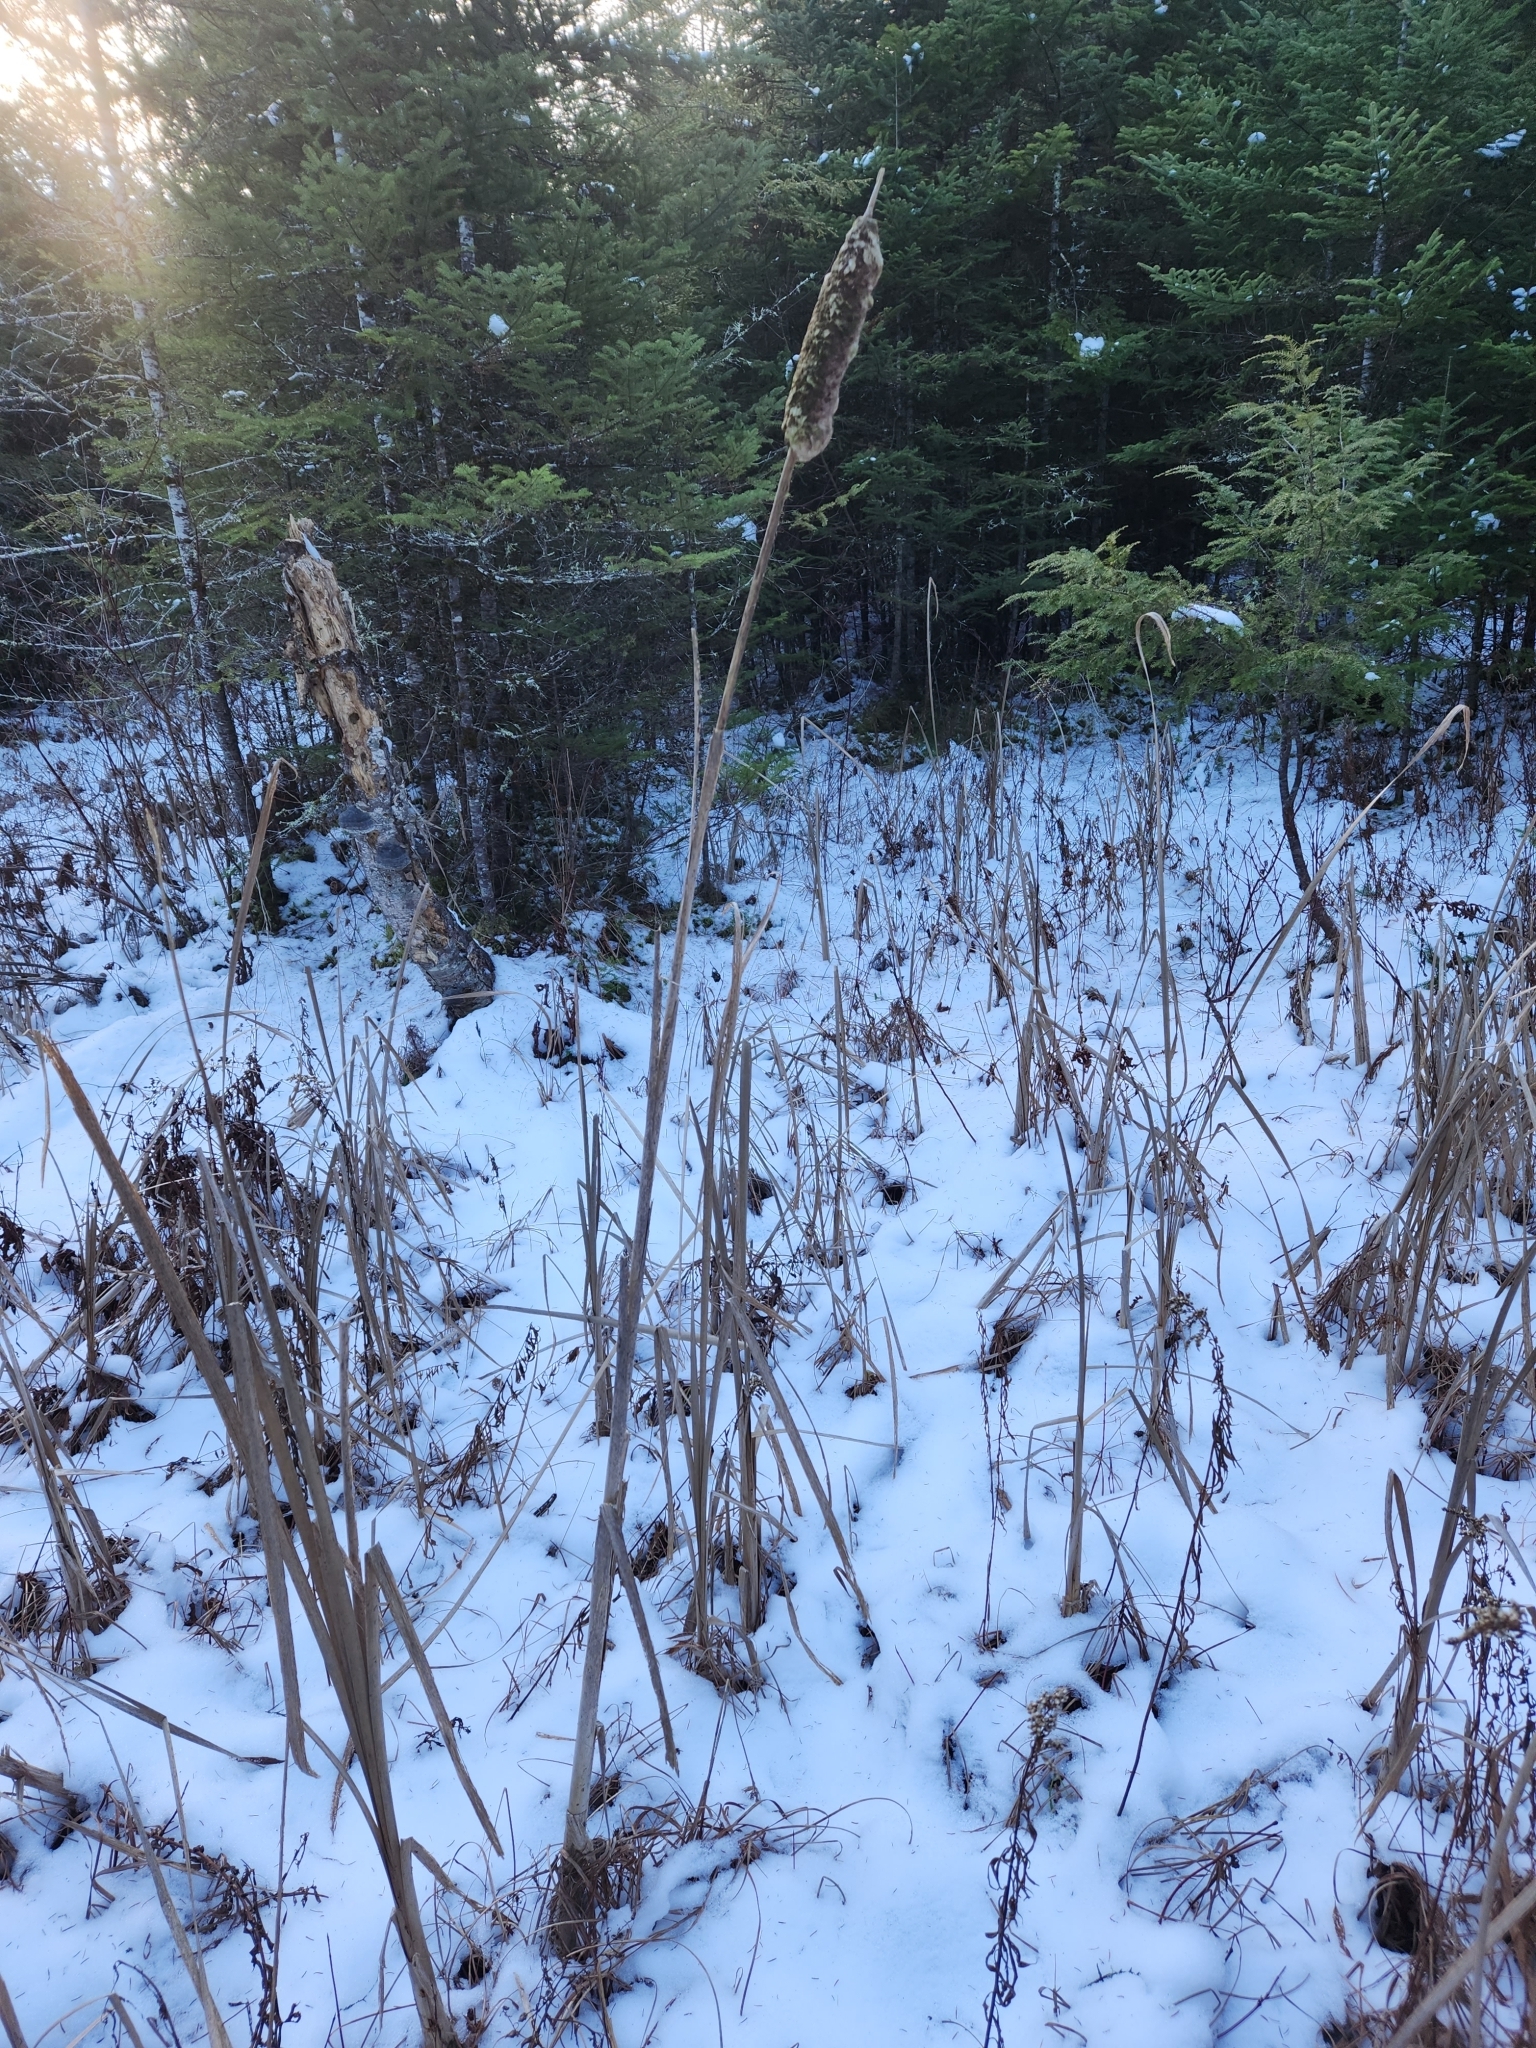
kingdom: Plantae
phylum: Tracheophyta
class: Liliopsida
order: Poales
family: Typhaceae
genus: Typha
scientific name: Typha
